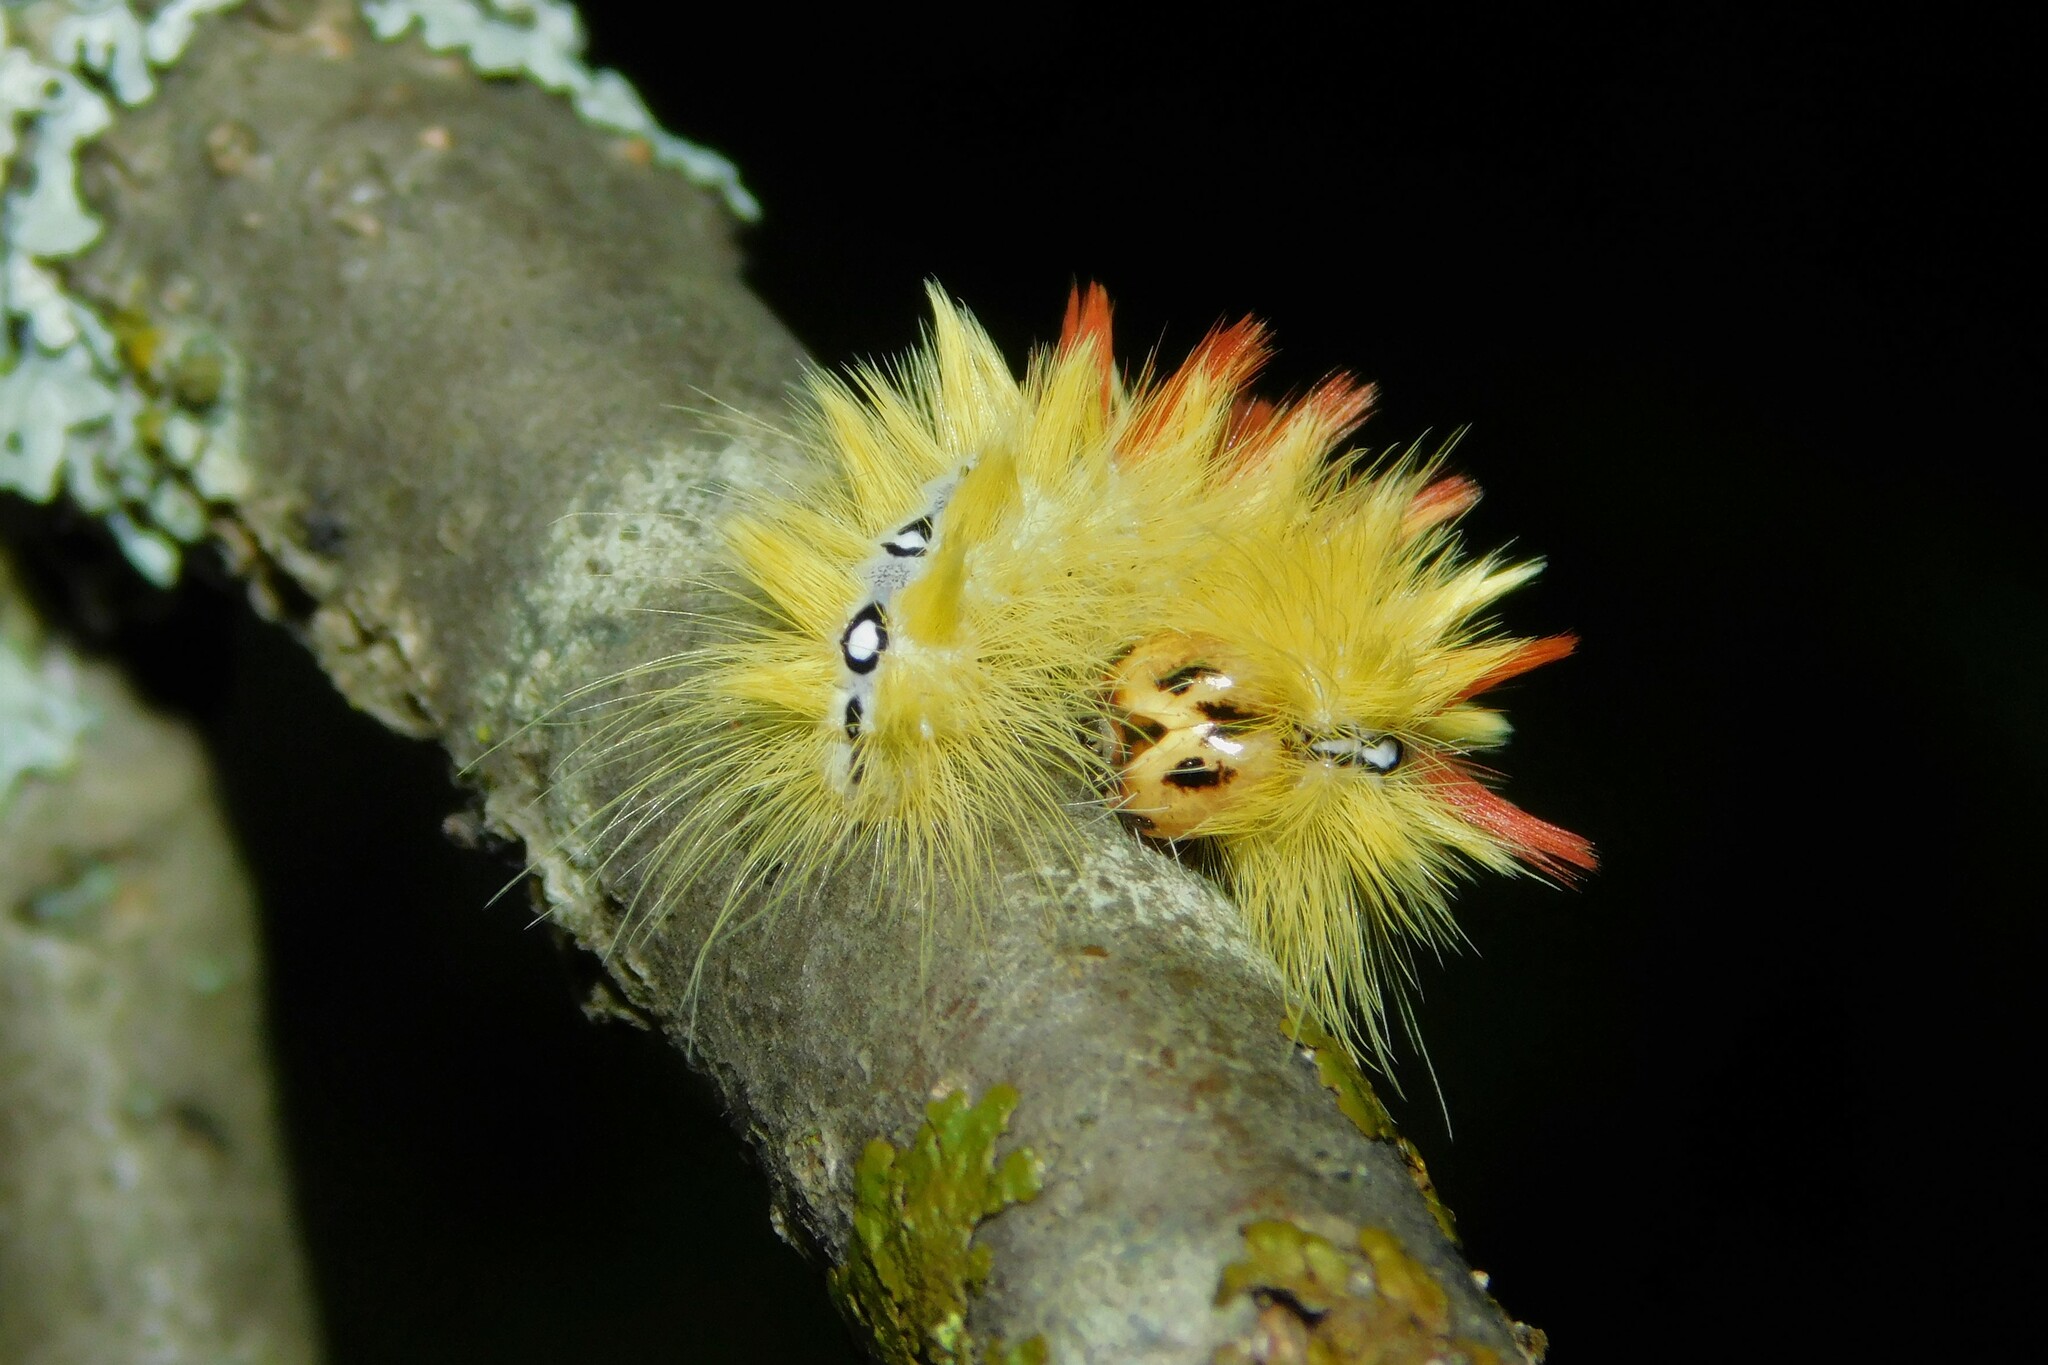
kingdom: Animalia
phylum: Arthropoda
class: Insecta
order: Lepidoptera
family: Noctuidae
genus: Acronicta
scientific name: Acronicta aceris
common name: Sycamore
